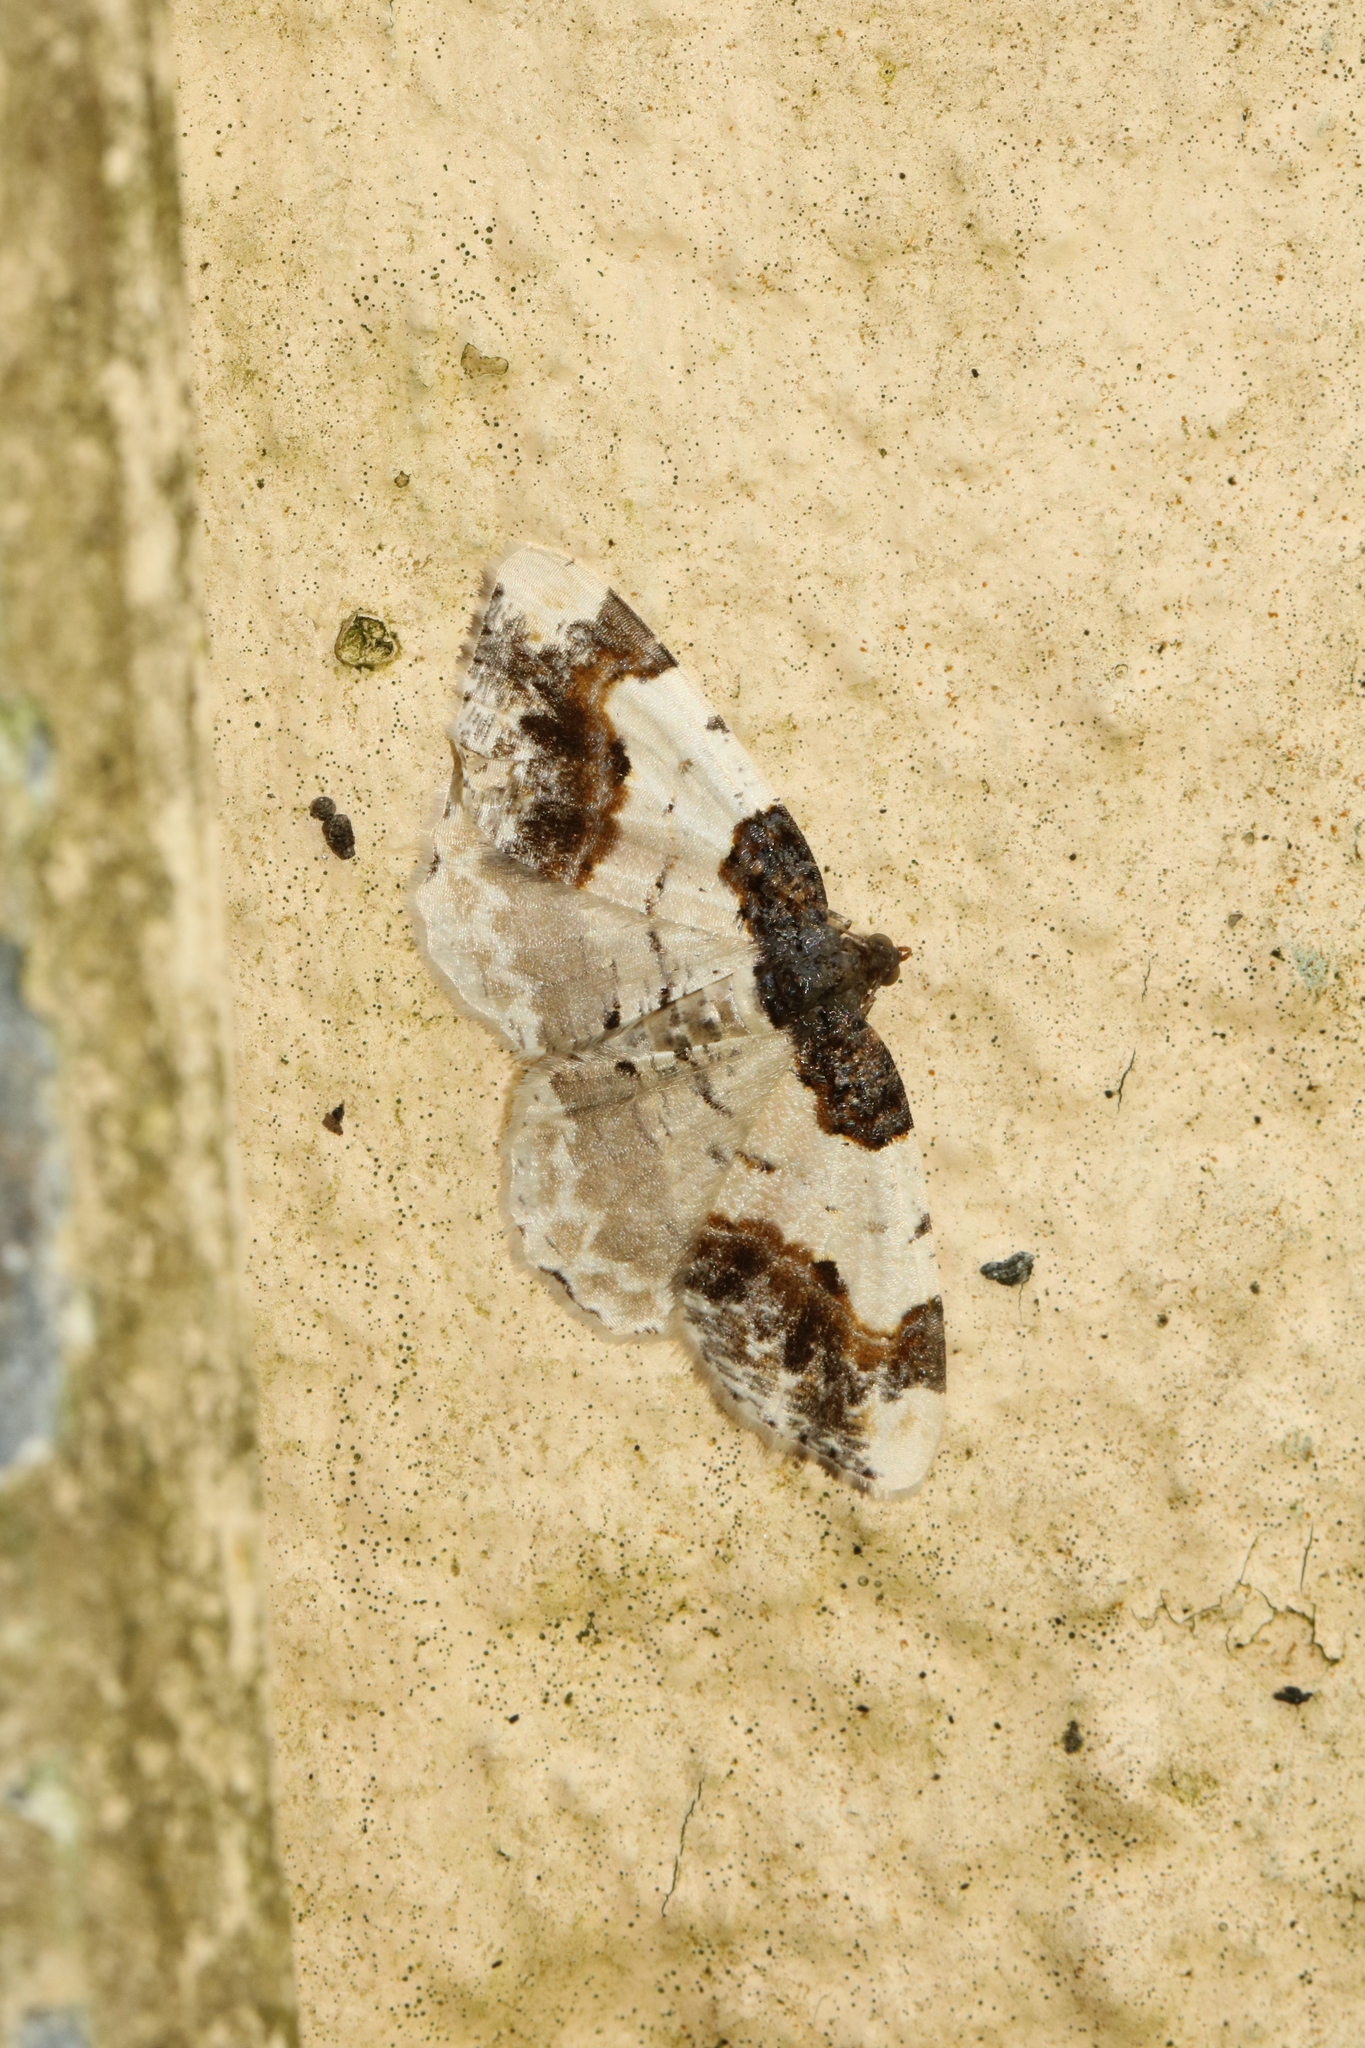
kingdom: Animalia
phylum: Arthropoda
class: Insecta
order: Lepidoptera
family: Geometridae
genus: Ligdia
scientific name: Ligdia adustata
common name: Scorched carpet
